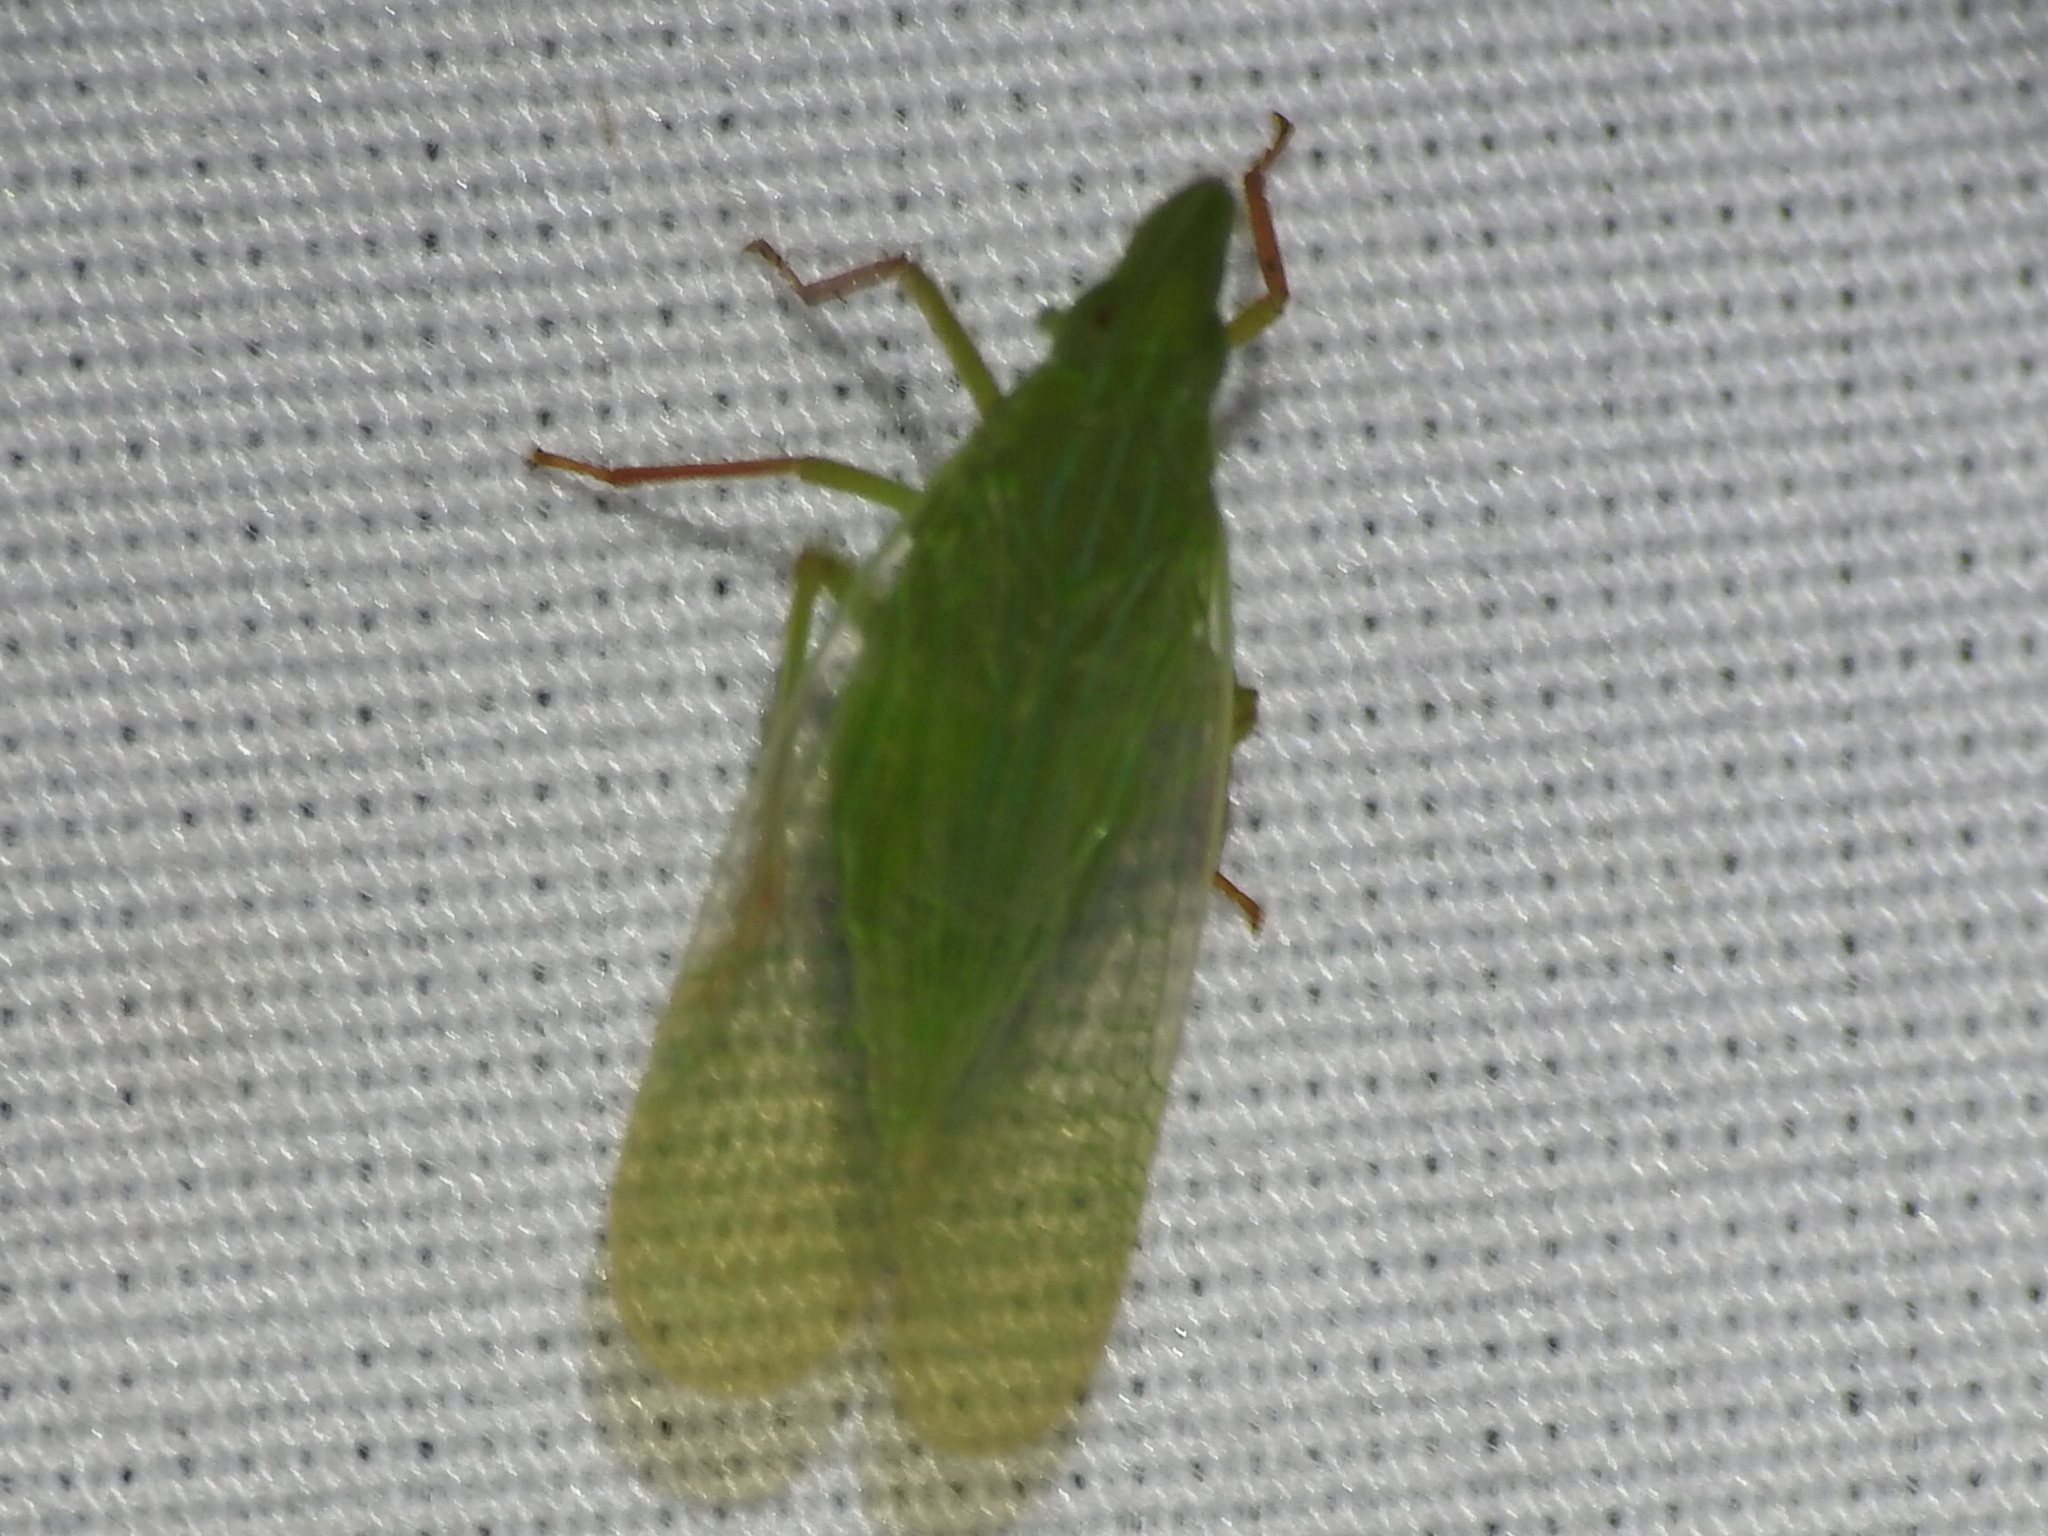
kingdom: Animalia
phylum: Arthropoda
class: Insecta
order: Hemiptera
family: Dictyopharidae
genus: Rhynchomitra
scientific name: Rhynchomitra recurva
